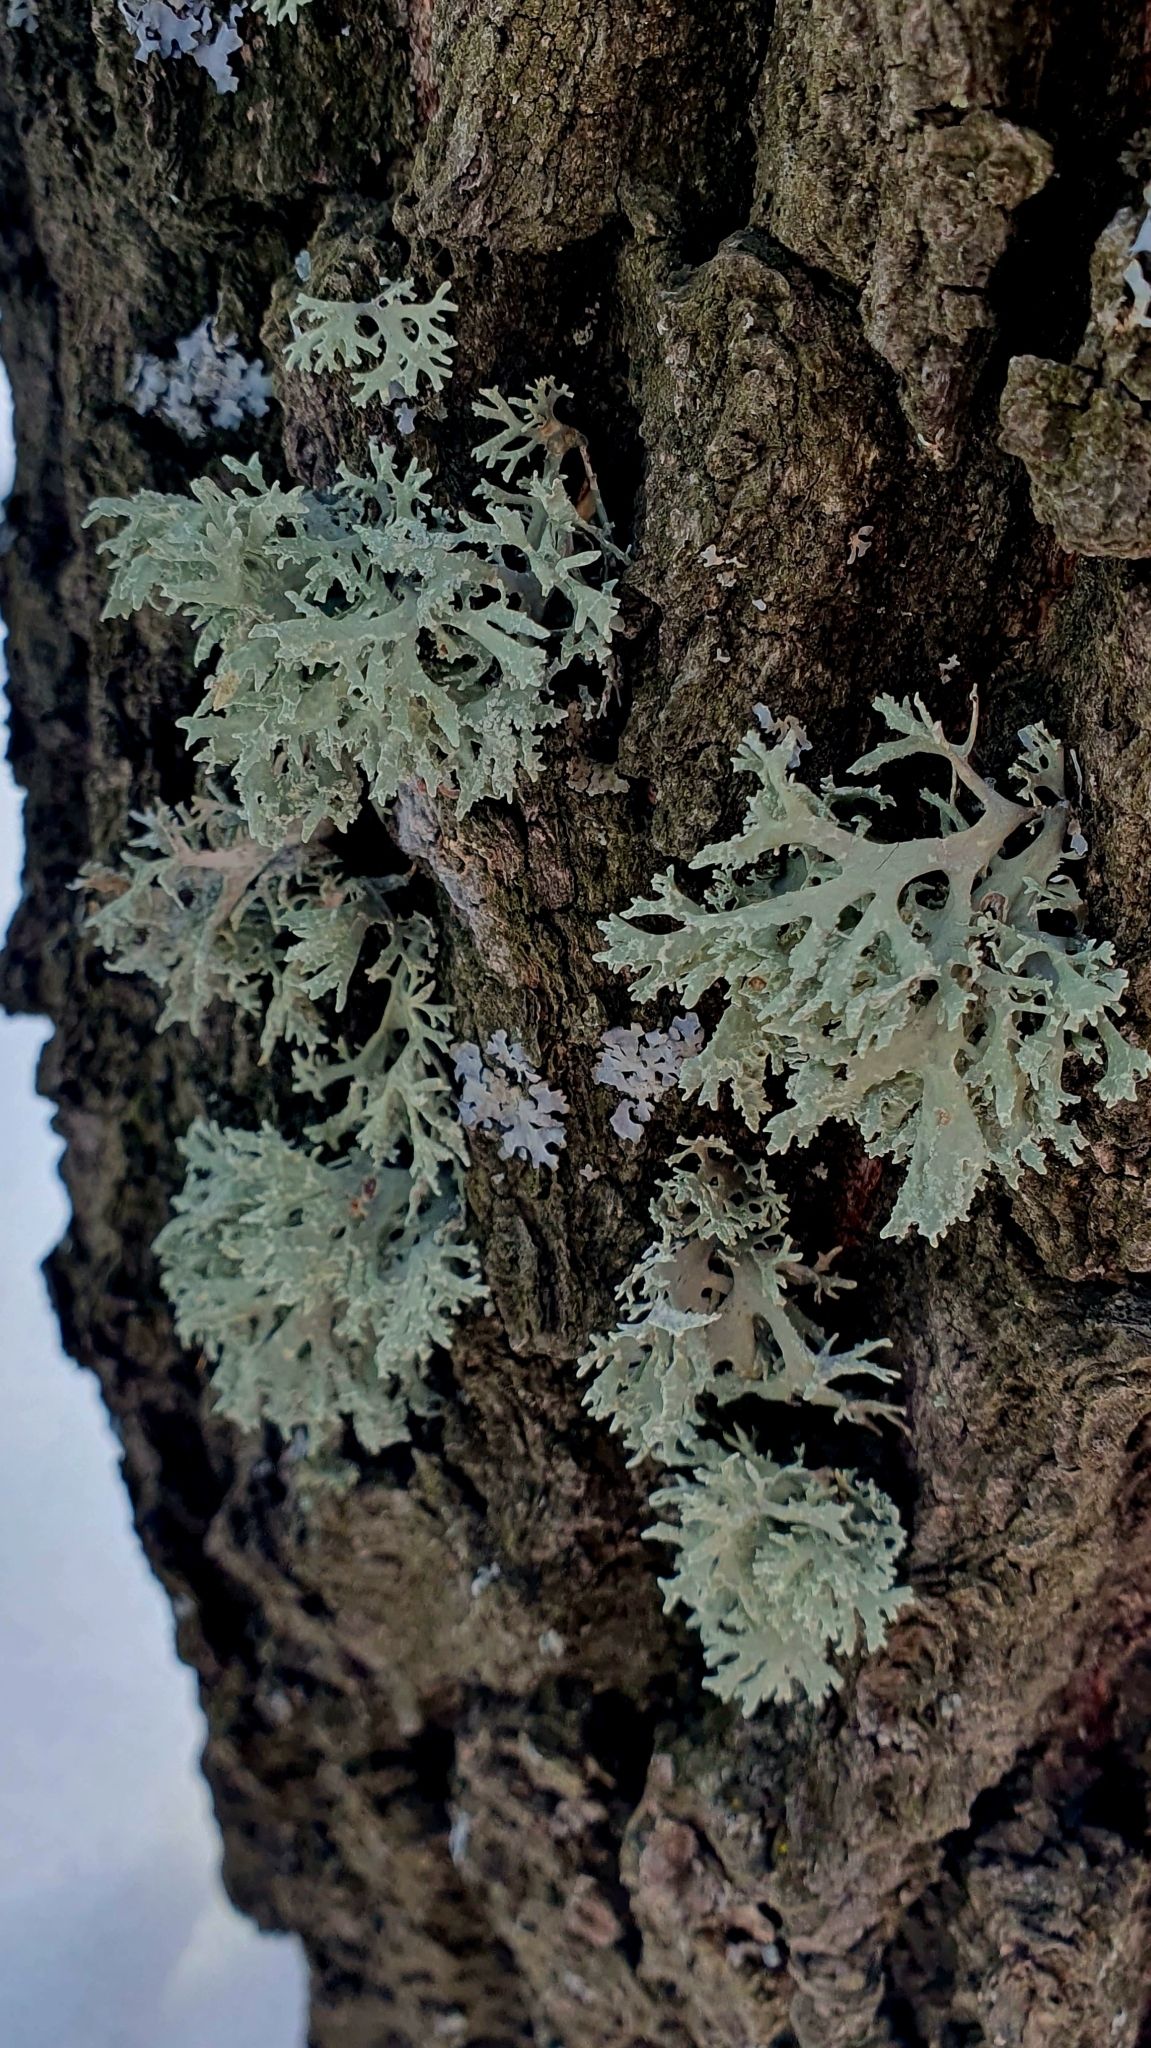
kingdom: Fungi
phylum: Ascomycota
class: Lecanoromycetes
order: Lecanorales
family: Parmeliaceae
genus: Evernia
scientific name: Evernia prunastri
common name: Oak moss
